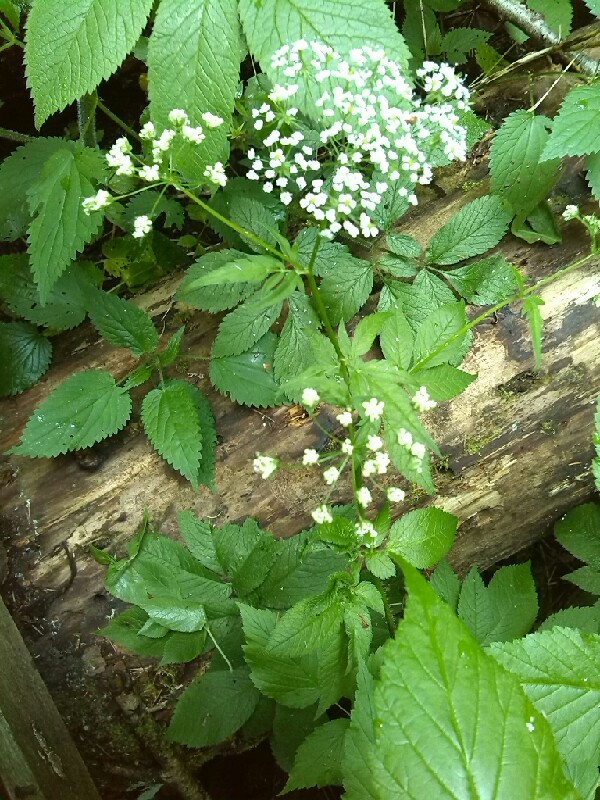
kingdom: Plantae
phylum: Tracheophyta
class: Magnoliopsida
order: Apiales
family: Apiaceae
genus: Chaerophyllum
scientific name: Chaerophyllum aromaticum
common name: Broadleaf chervil
